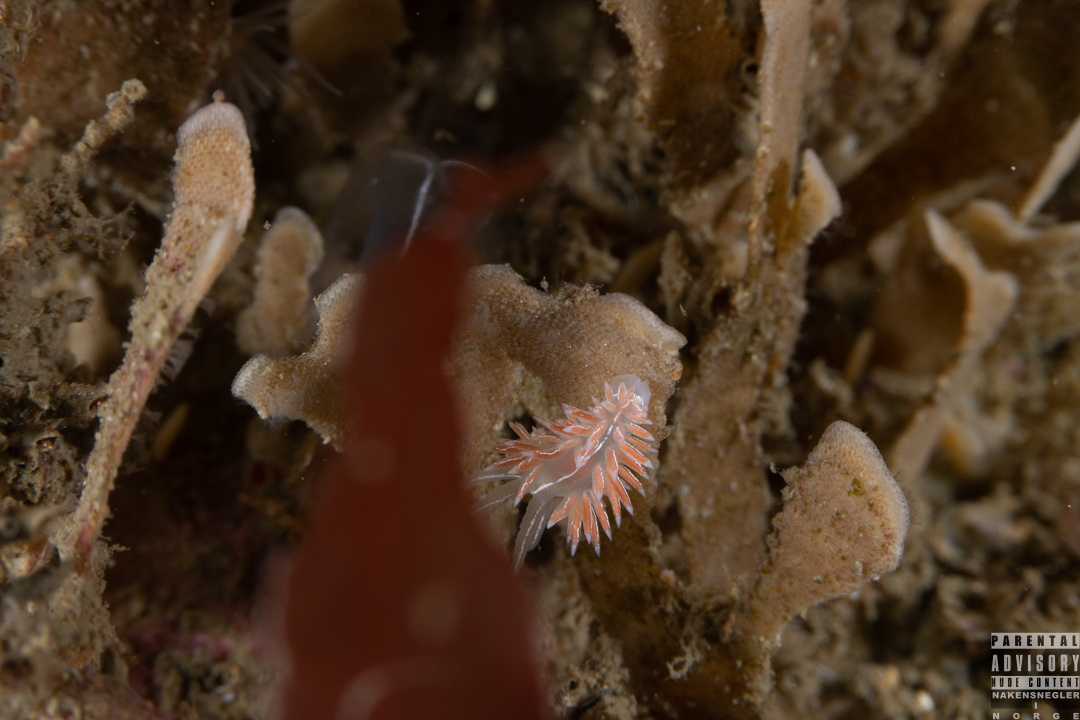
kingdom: Animalia
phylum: Mollusca
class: Gastropoda
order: Nudibranchia
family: Coryphellidae
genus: Coryphella
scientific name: Coryphella chriskaugei
